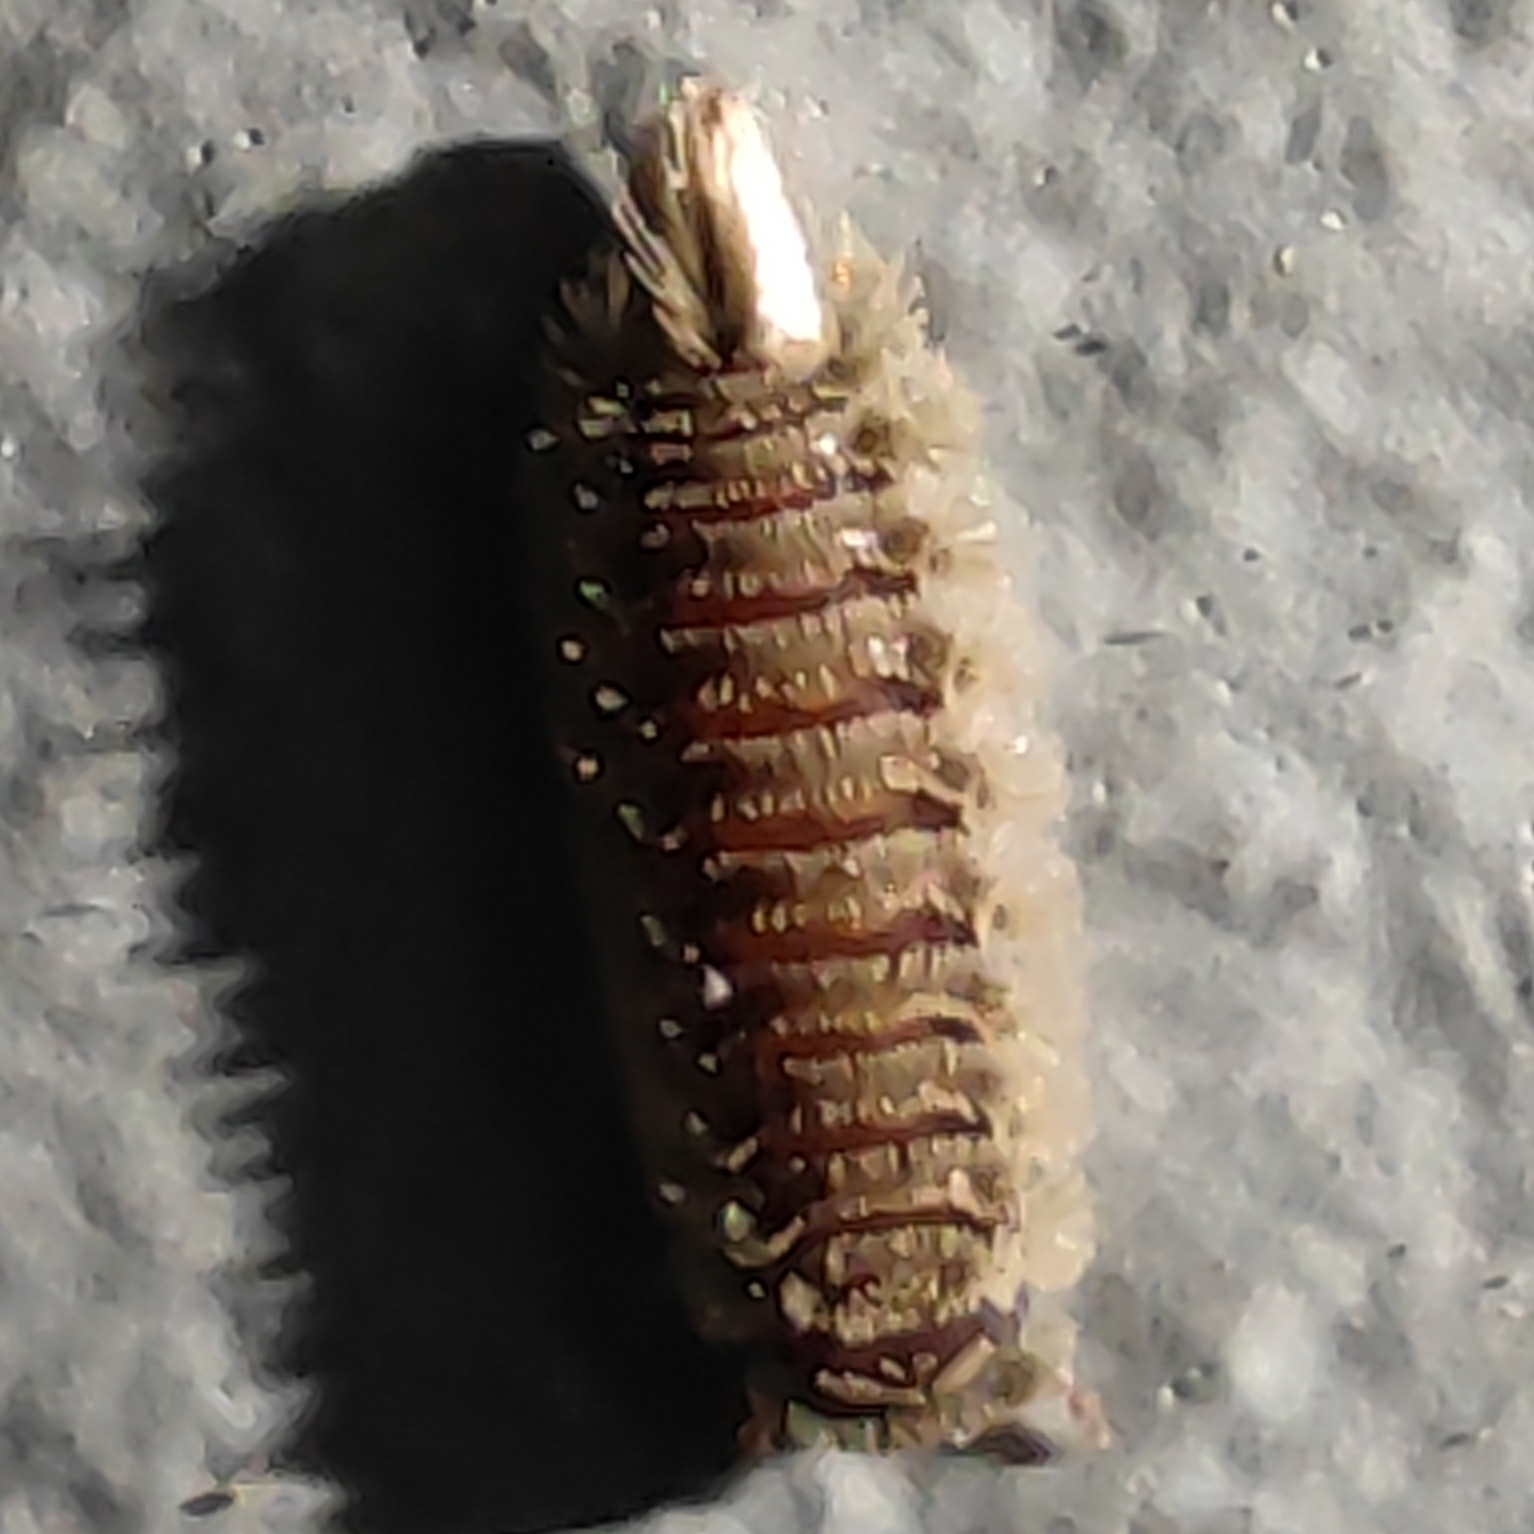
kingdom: Animalia
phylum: Arthropoda
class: Diplopoda
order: Polyxenida
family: Polyxenidae
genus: Polyxenus
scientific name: Polyxenus lagurus
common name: Bristly millipede
